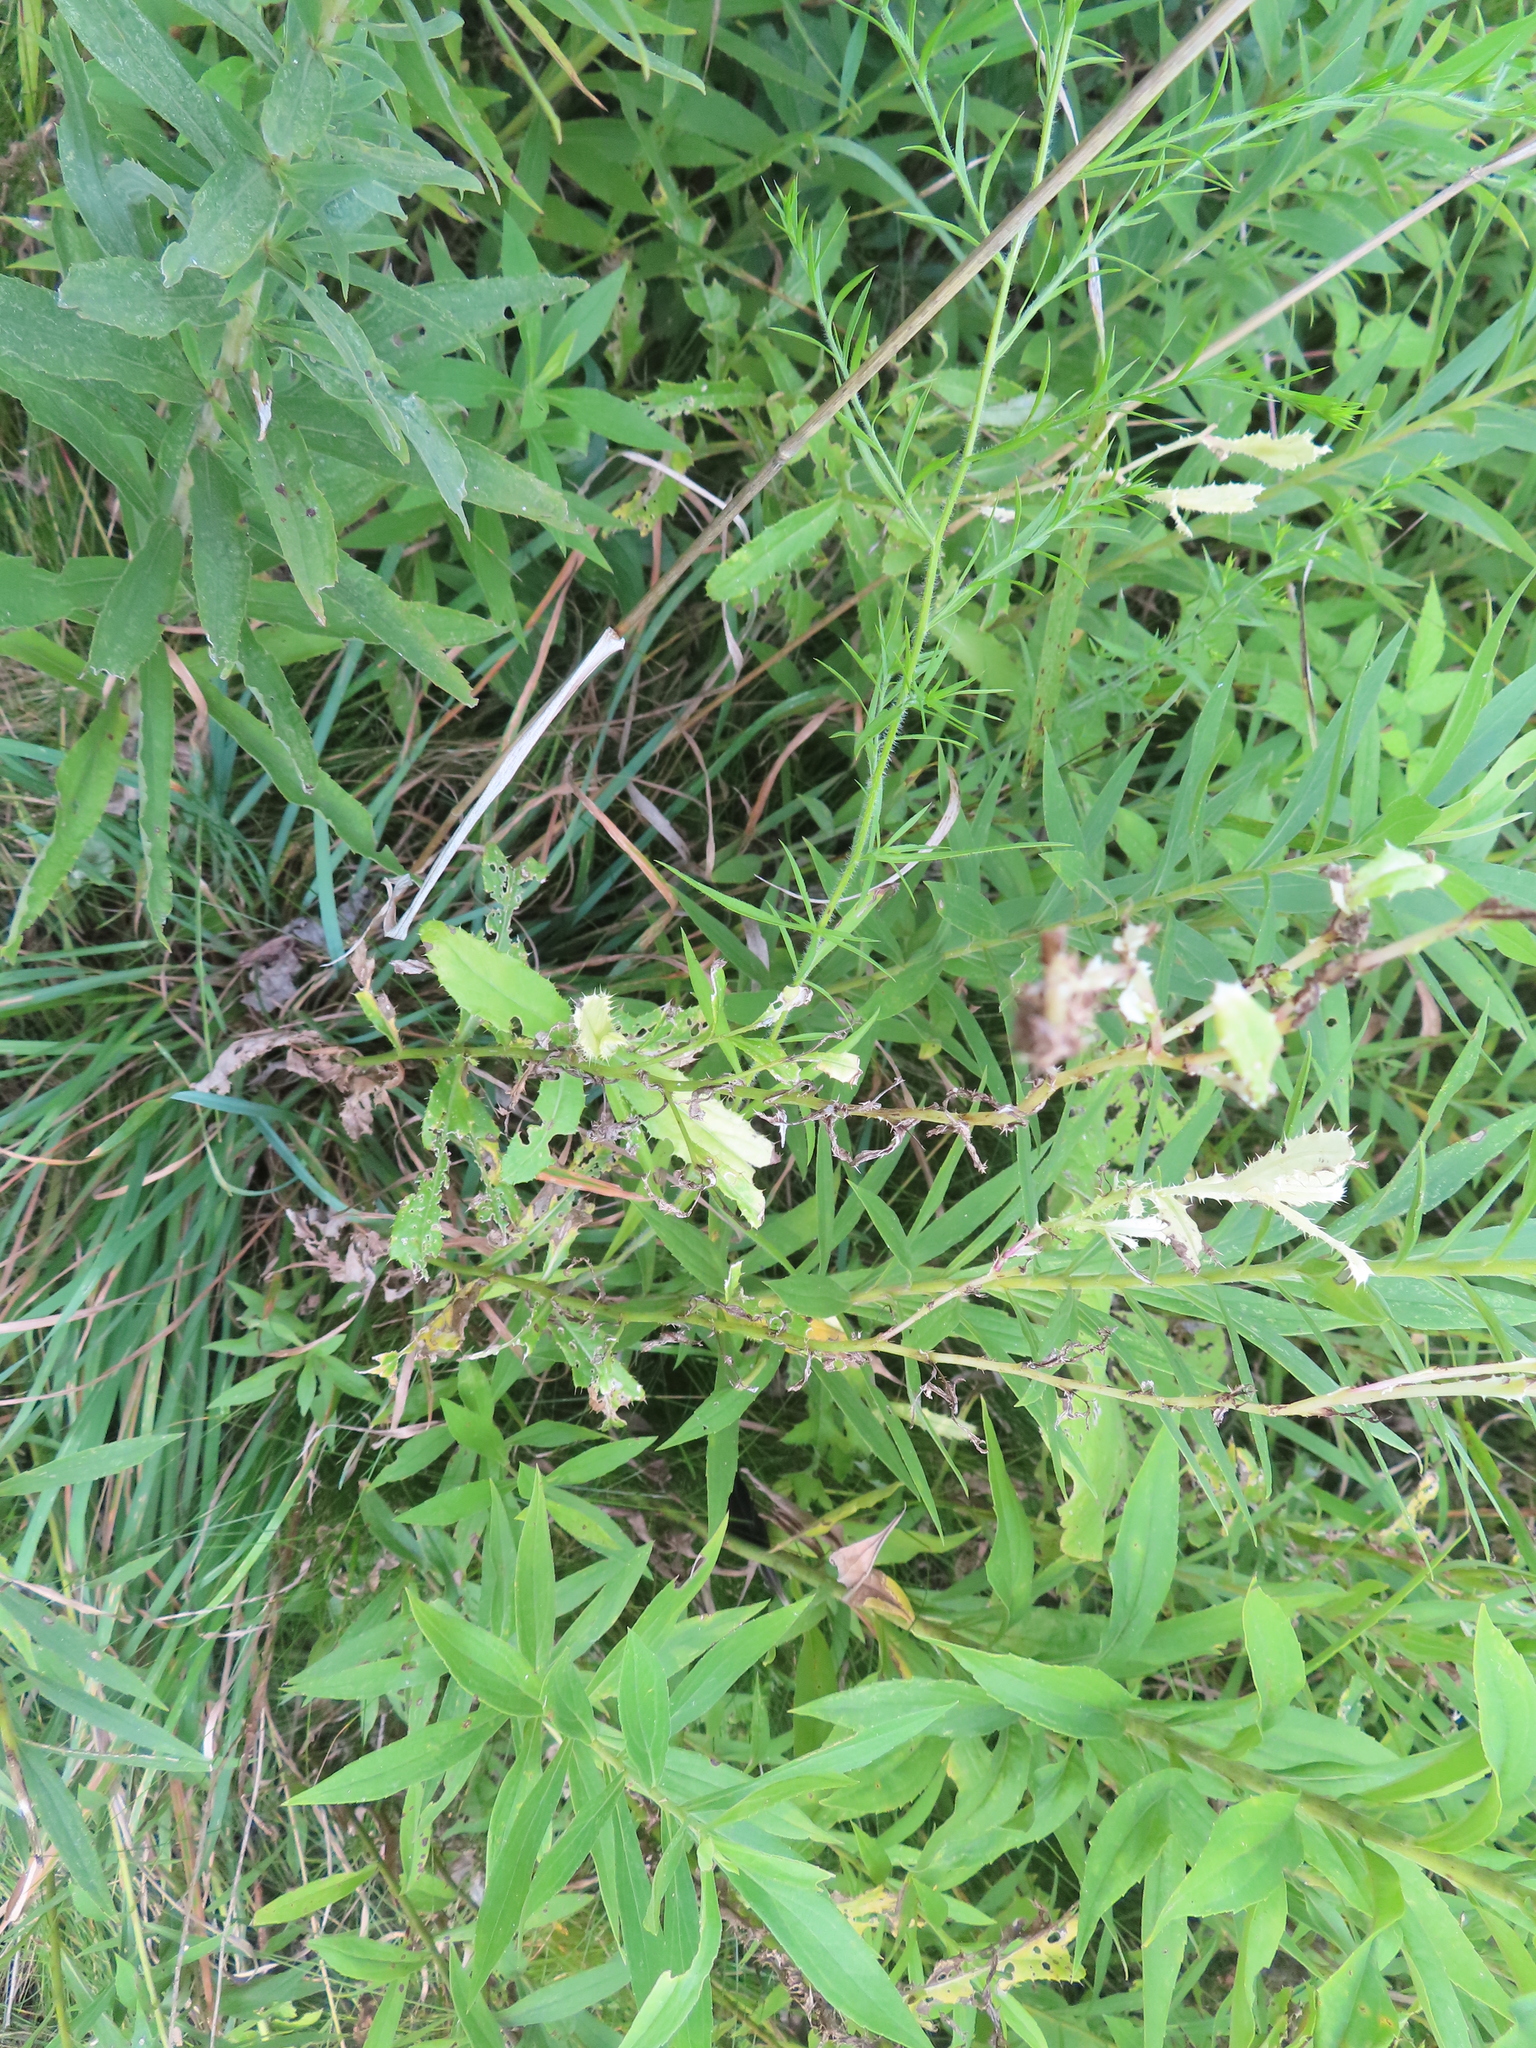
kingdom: Bacteria
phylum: Proteobacteria
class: Gammaproteobacteria
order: Pseudomonadales
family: Pseudomonadaceae
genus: Pseudomonas
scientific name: Pseudomonas syringae
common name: Bacterial speck
